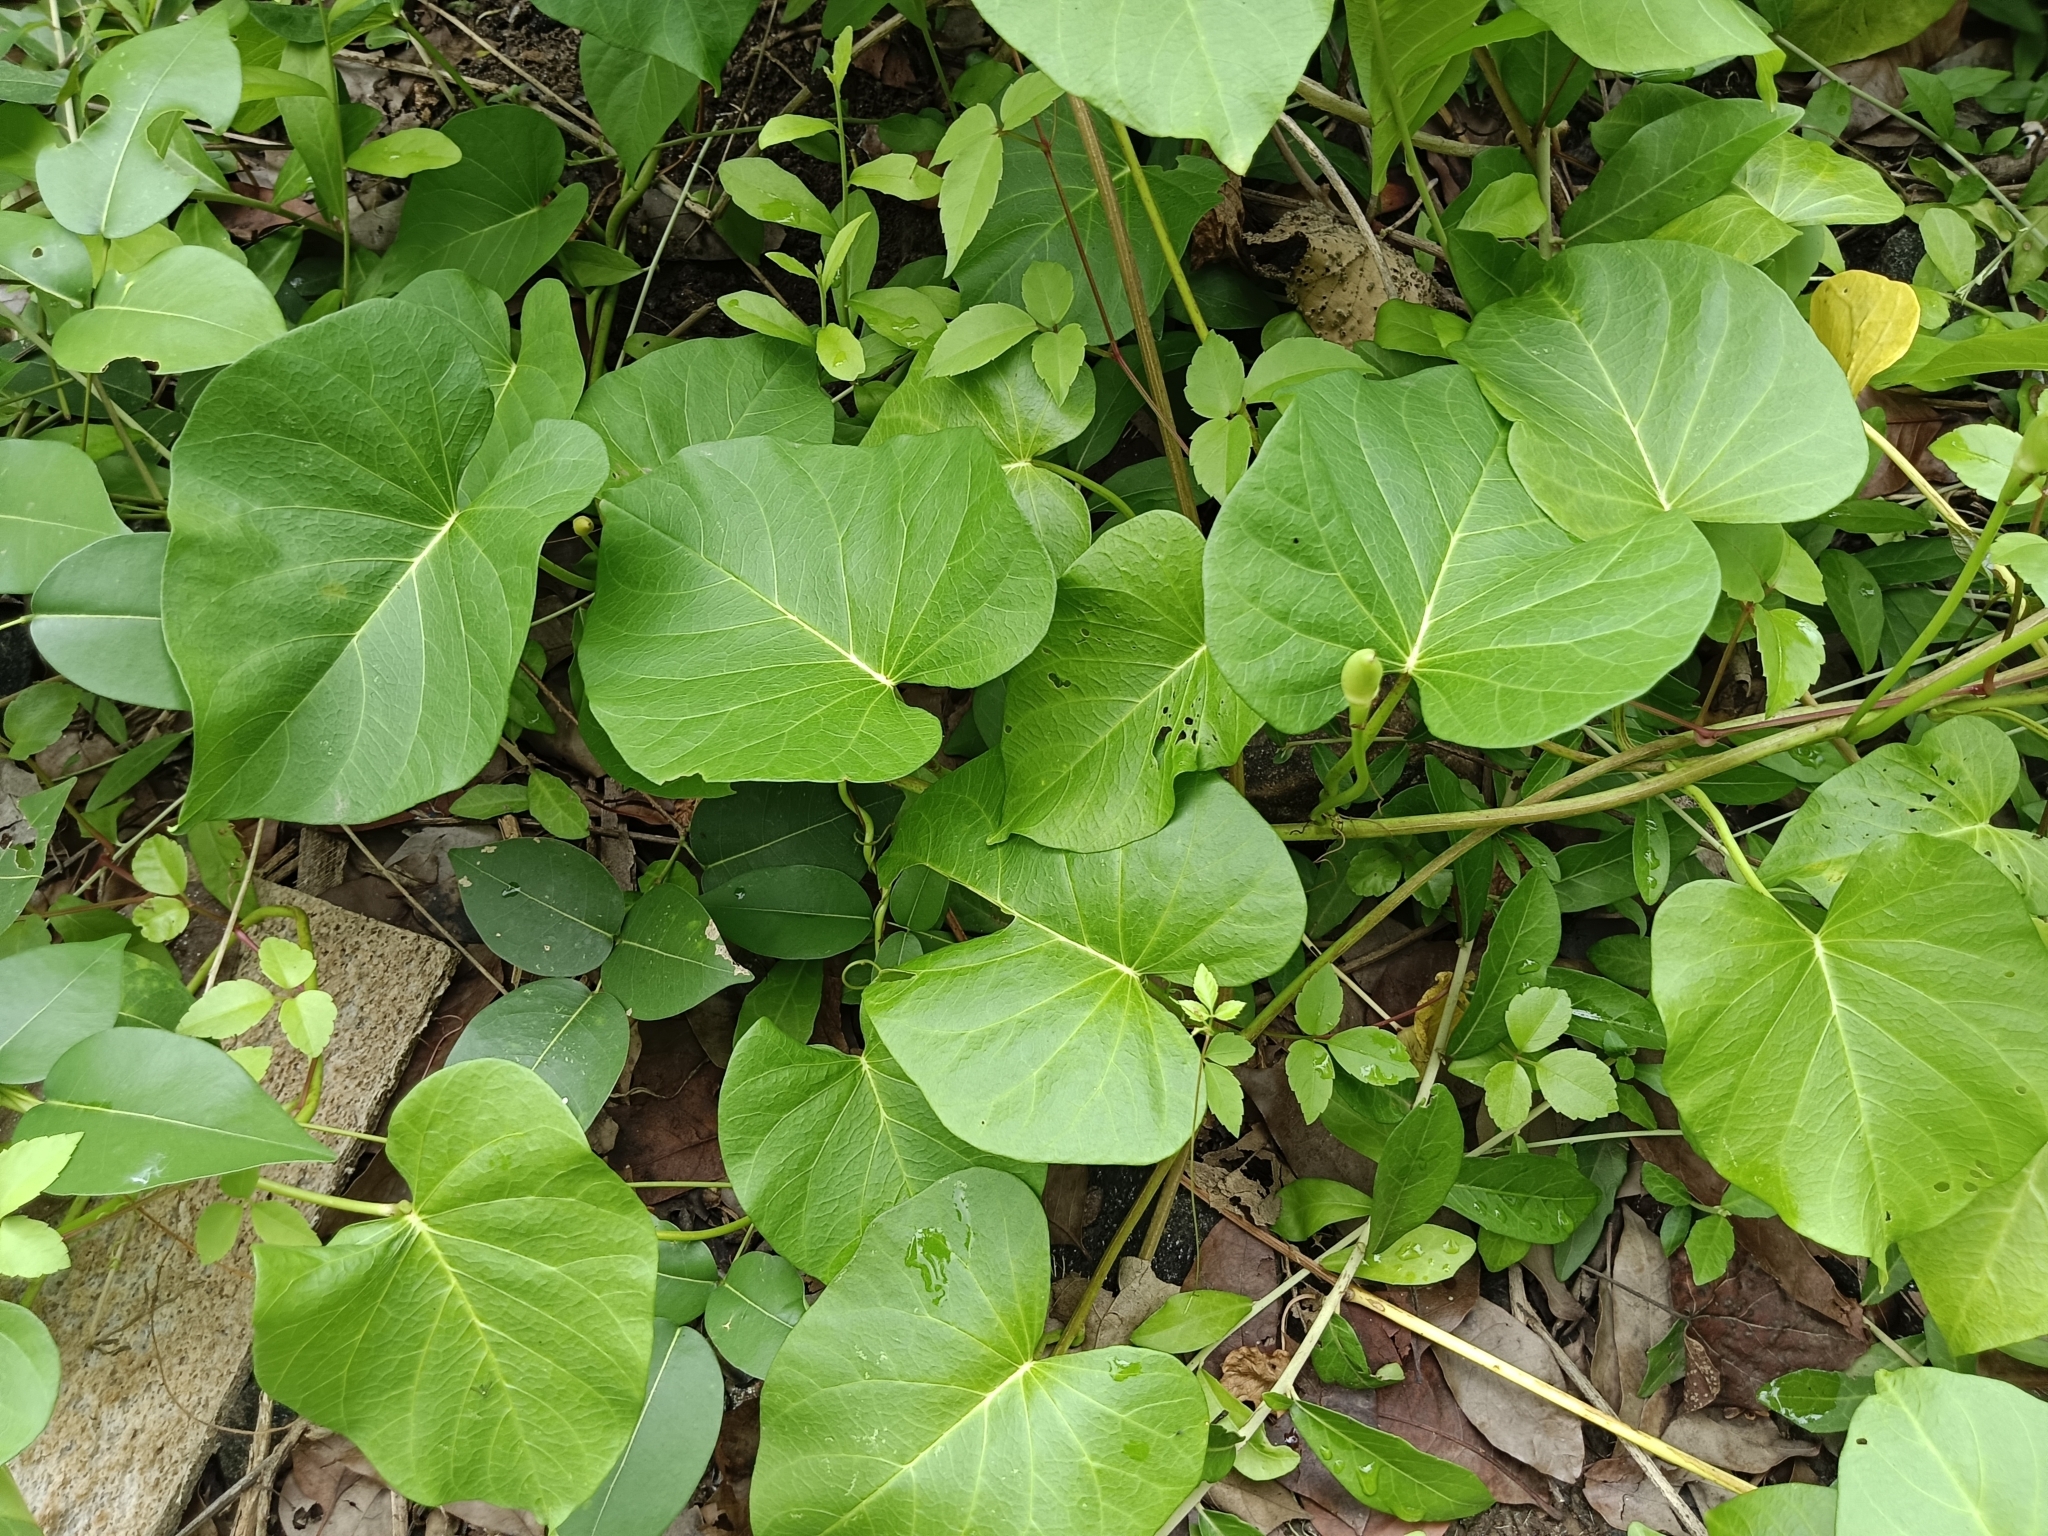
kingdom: Plantae
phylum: Tracheophyta
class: Magnoliopsida
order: Solanales
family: Convolvulaceae
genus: Ipomoea
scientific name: Ipomoea violacea
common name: Beach moonflower
